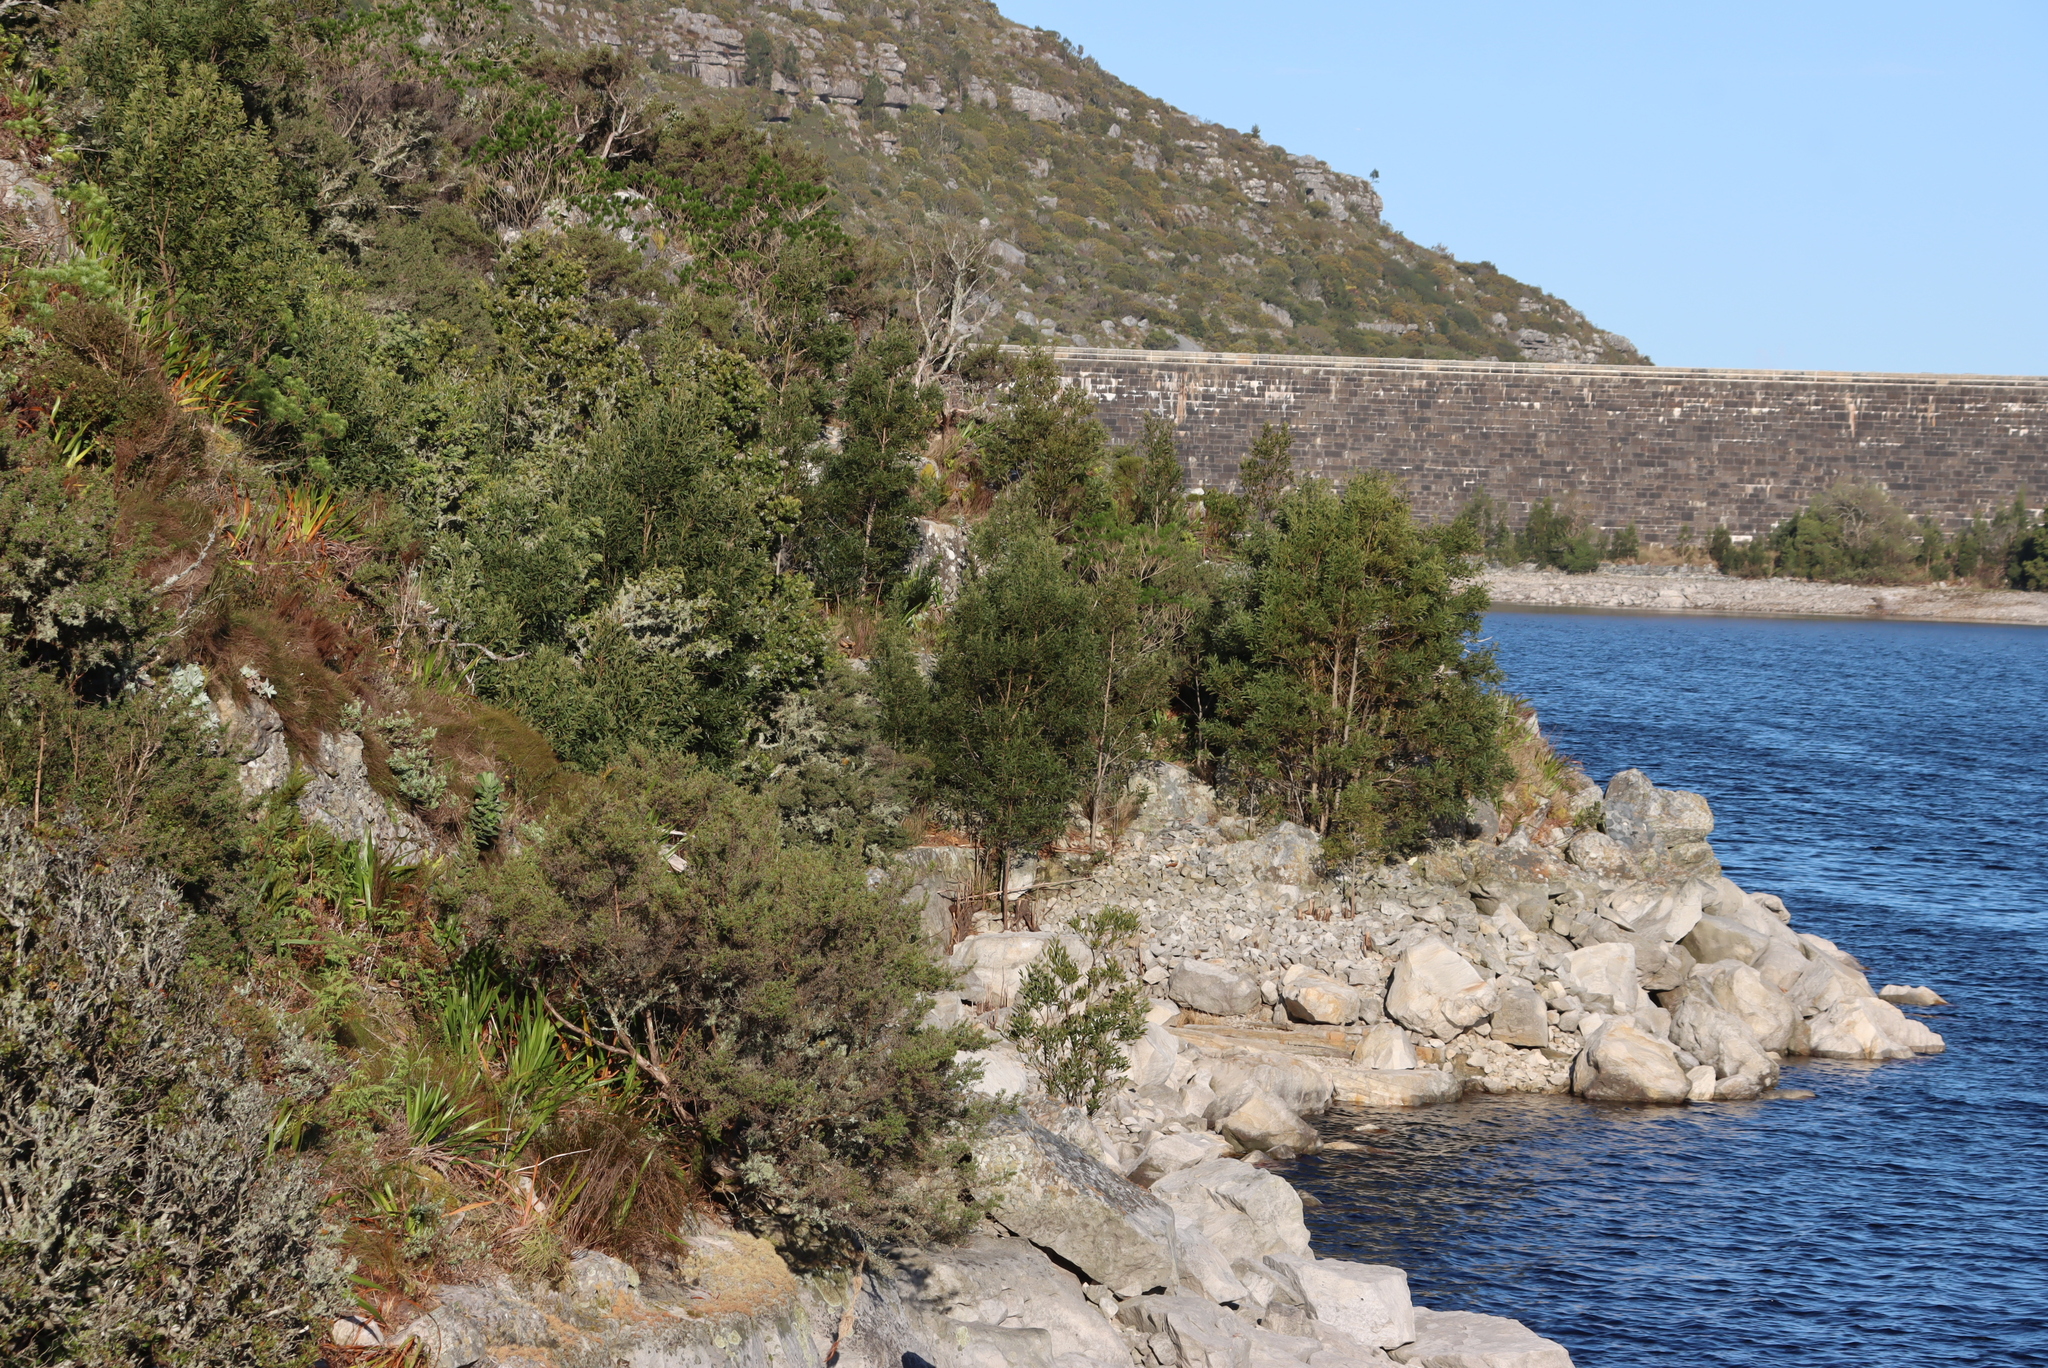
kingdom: Plantae
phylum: Tracheophyta
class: Magnoliopsida
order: Fabales
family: Fabaceae
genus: Acacia
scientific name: Acacia melanoxylon
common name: Blackwood
